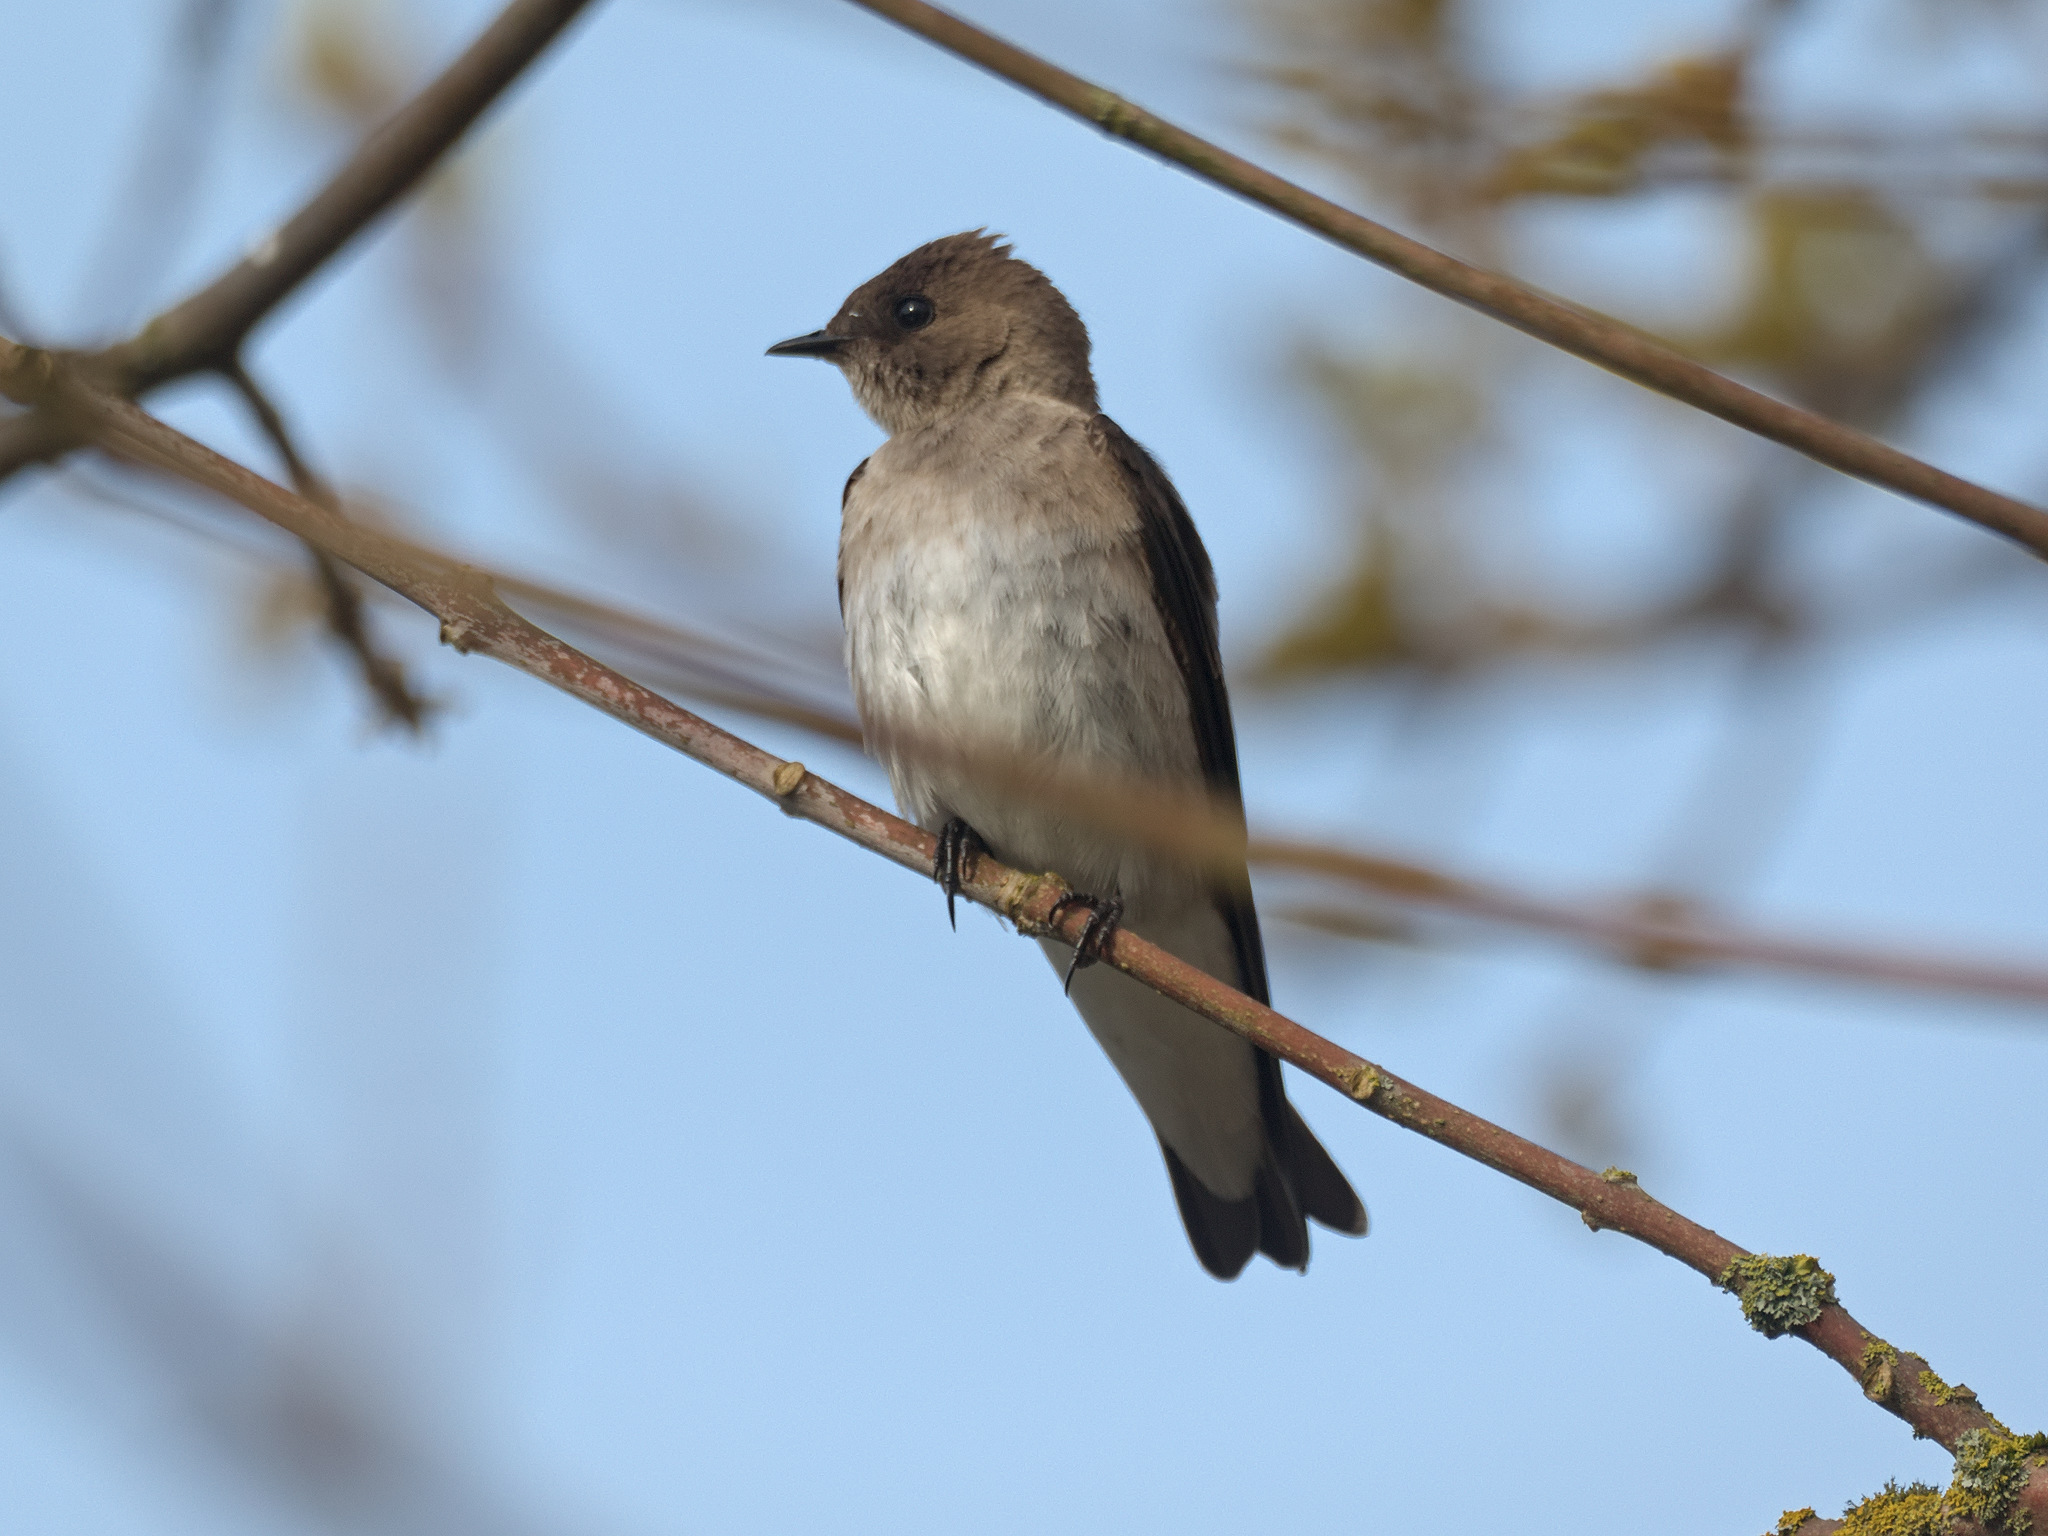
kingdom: Animalia
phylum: Chordata
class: Aves
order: Passeriformes
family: Hirundinidae
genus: Stelgidopteryx
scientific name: Stelgidopteryx serripennis
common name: Northern rough-winged swallow
